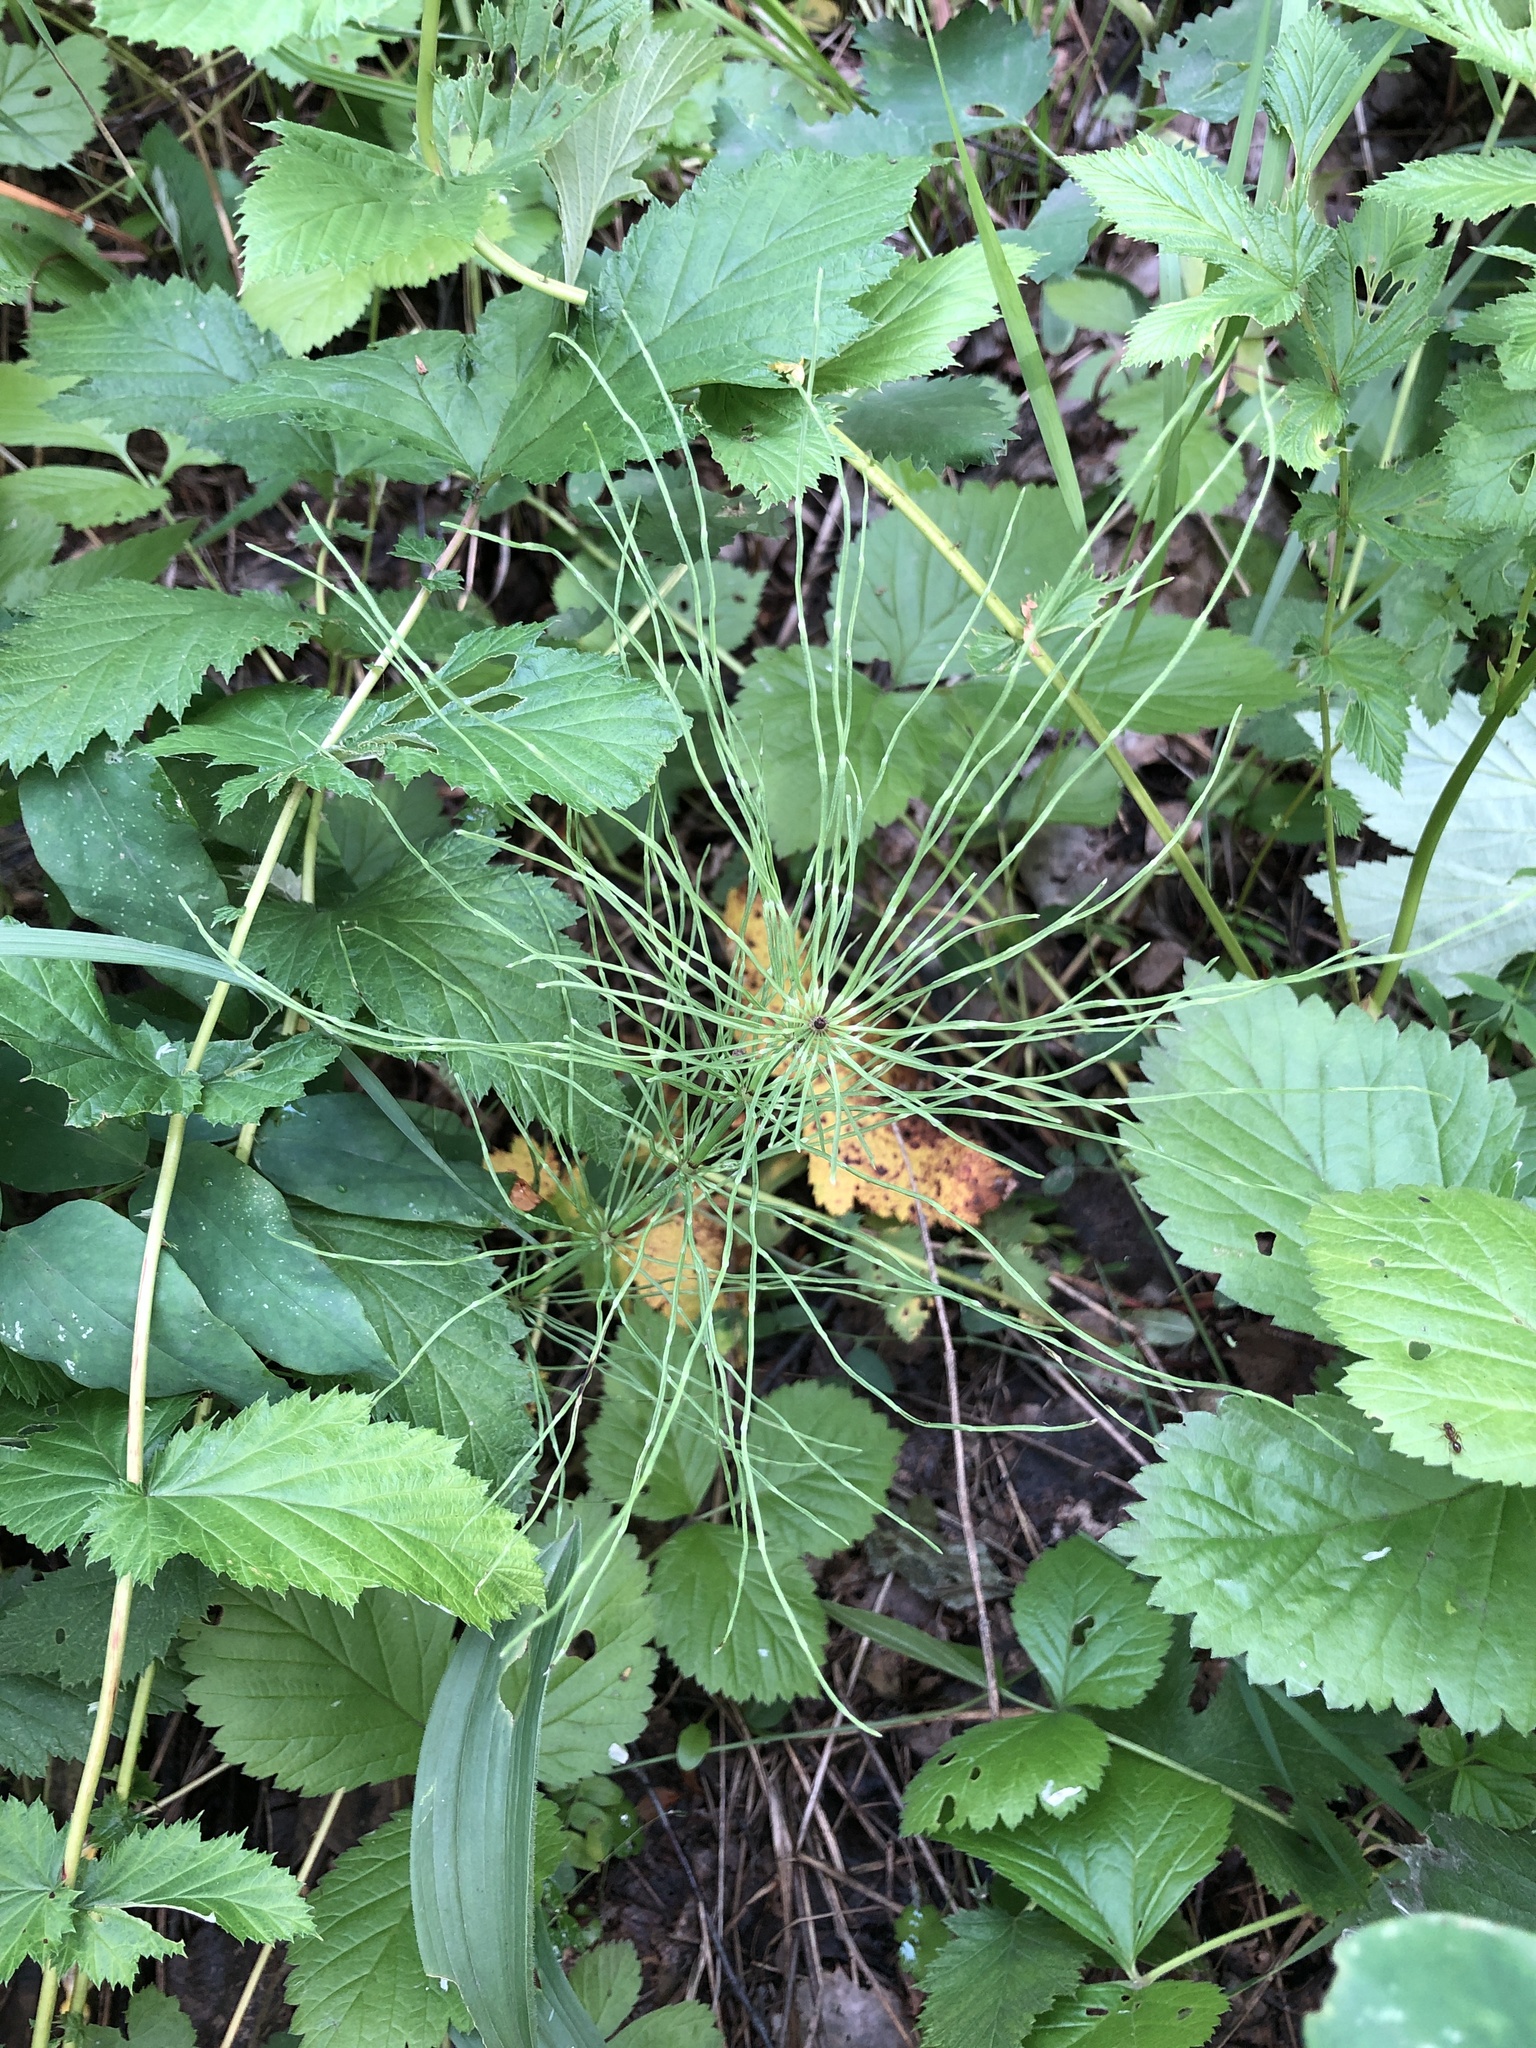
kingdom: Plantae
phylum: Tracheophyta
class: Polypodiopsida
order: Equisetales
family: Equisetaceae
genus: Equisetum
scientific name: Equisetum pratense
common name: Meadow horsetail
